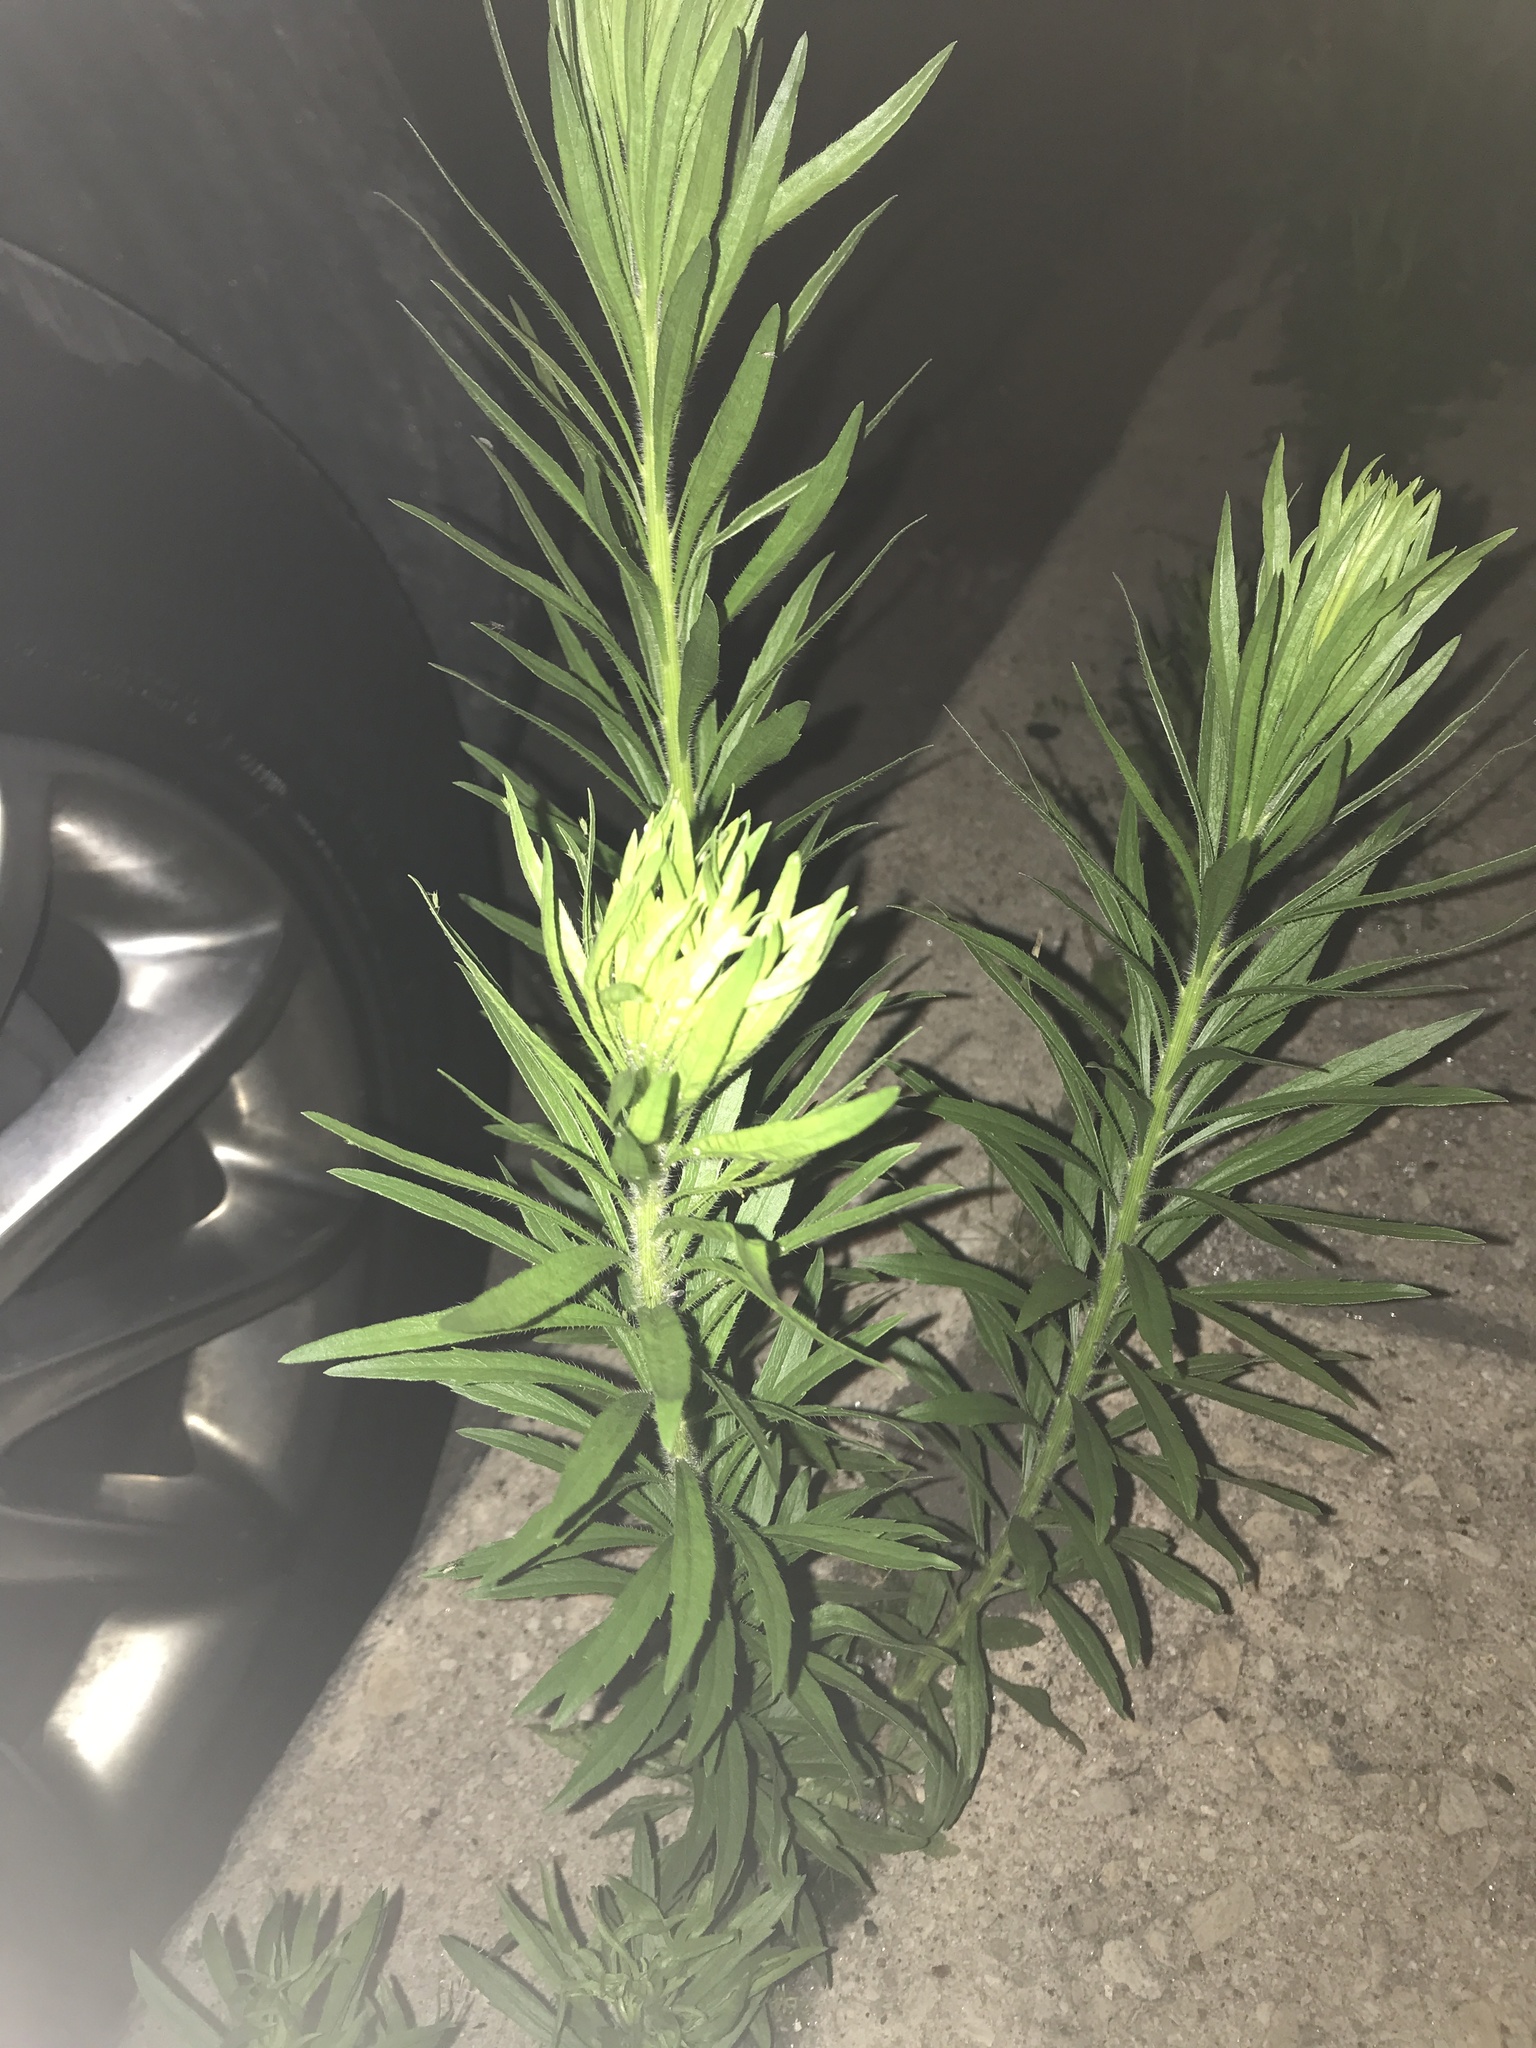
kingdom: Plantae
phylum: Tracheophyta
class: Magnoliopsida
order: Asterales
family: Asteraceae
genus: Erigeron
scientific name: Erigeron canadensis
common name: Canadian fleabane
